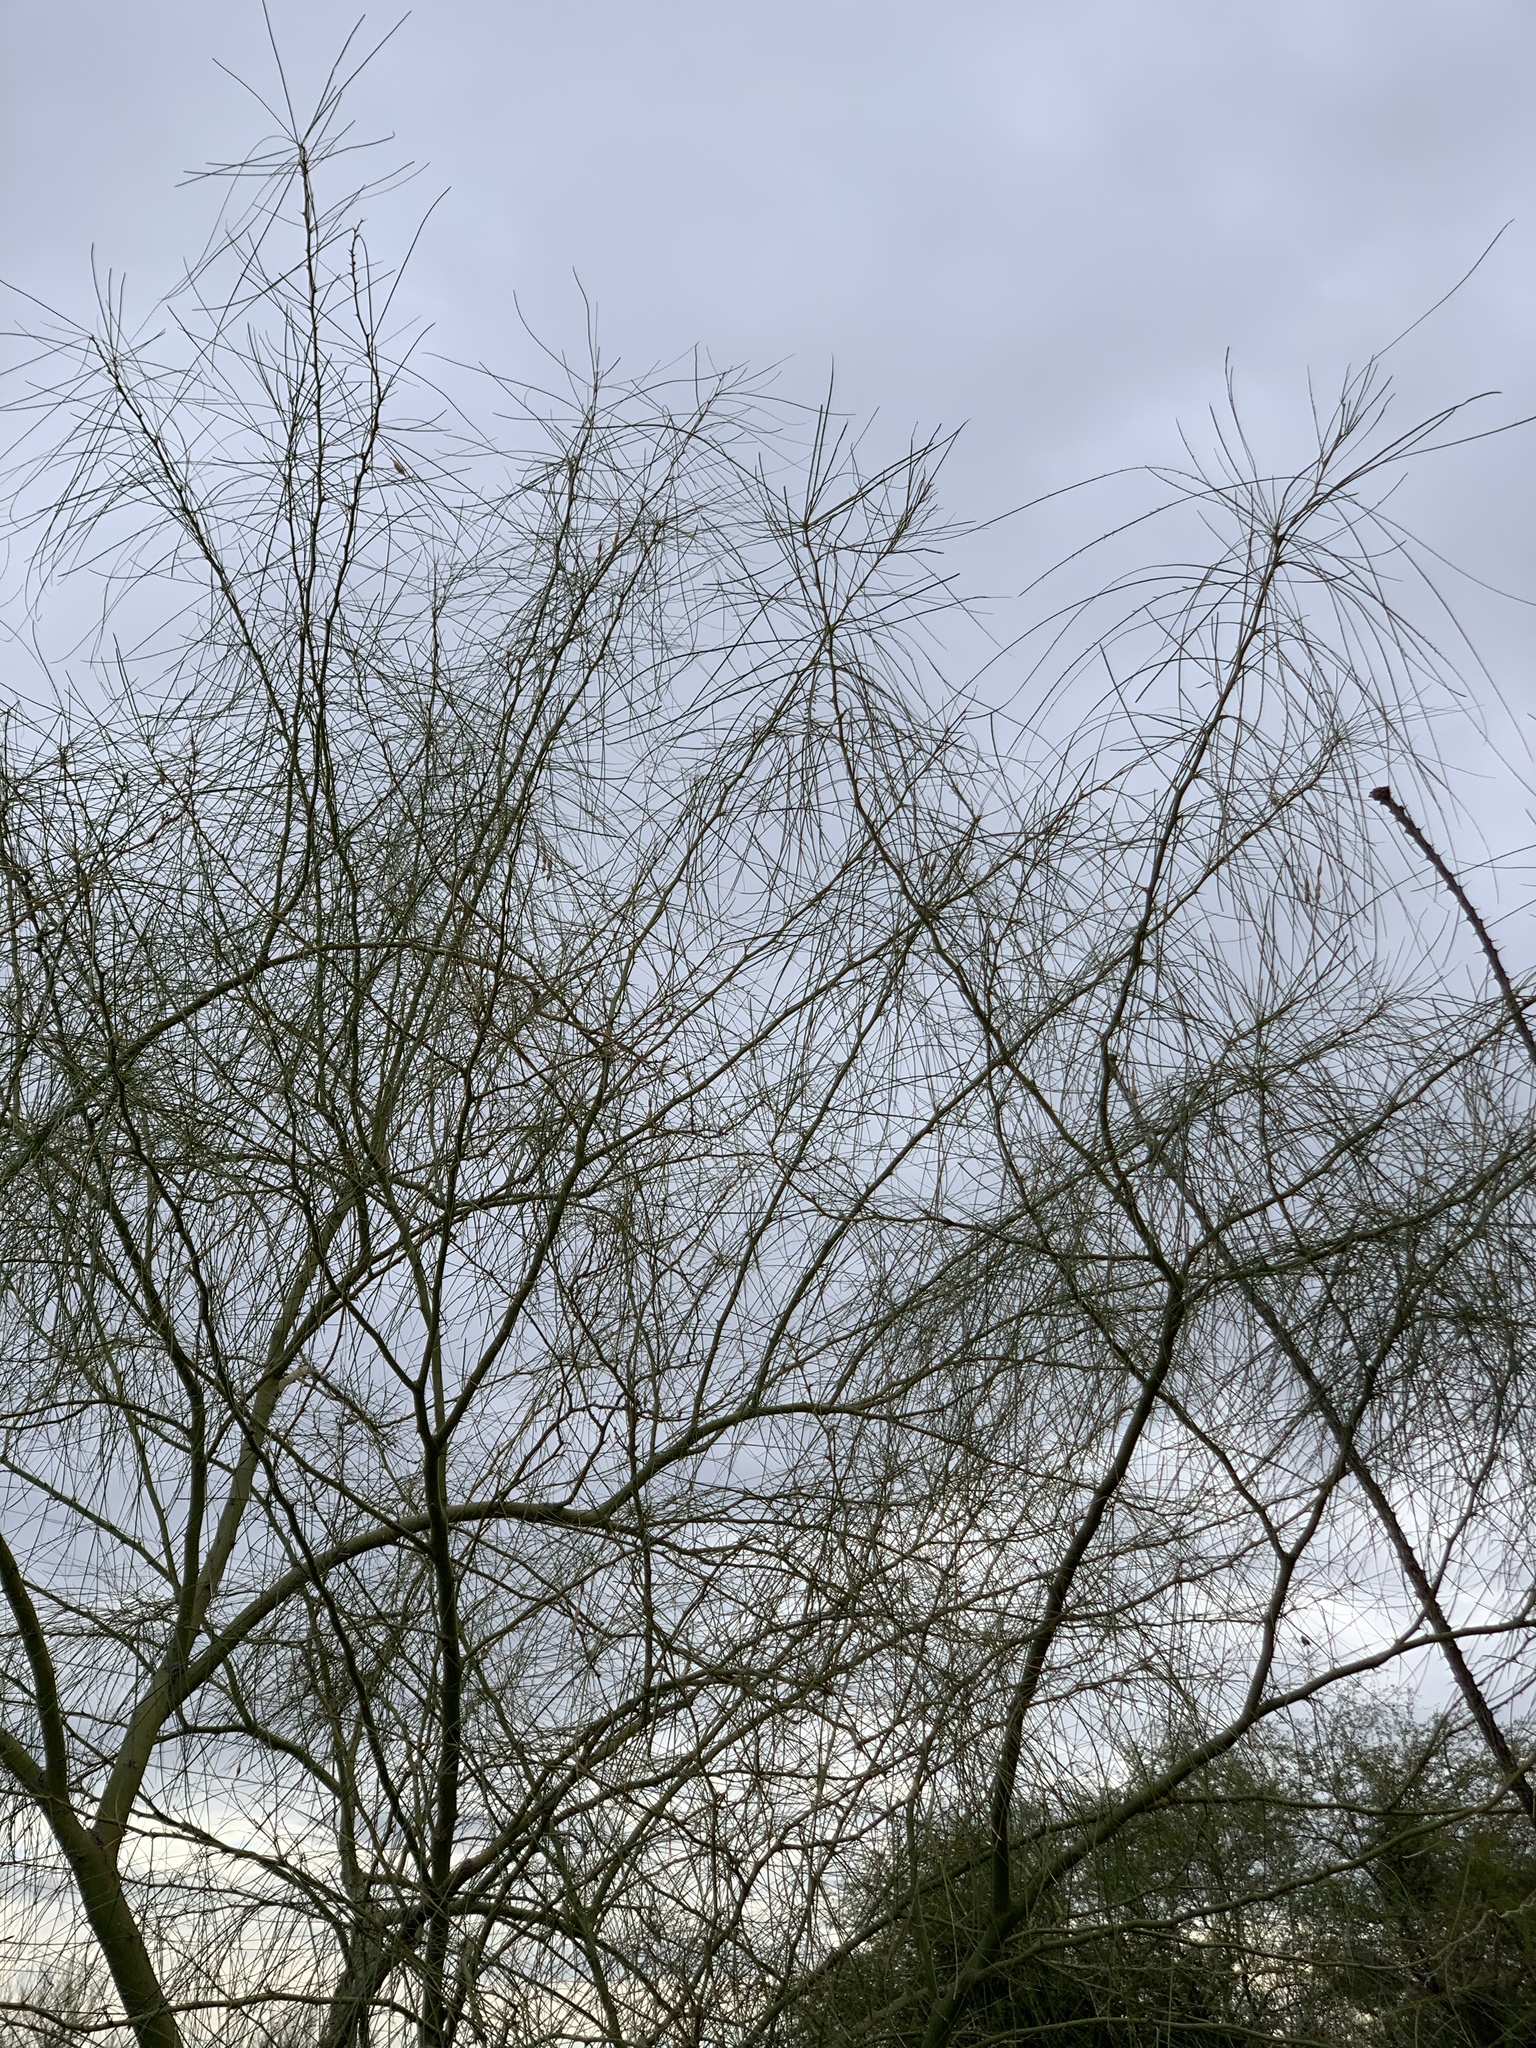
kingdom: Plantae
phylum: Tracheophyta
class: Magnoliopsida
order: Fabales
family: Fabaceae
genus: Parkinsonia
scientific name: Parkinsonia aculeata
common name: Jerusalem thorn
